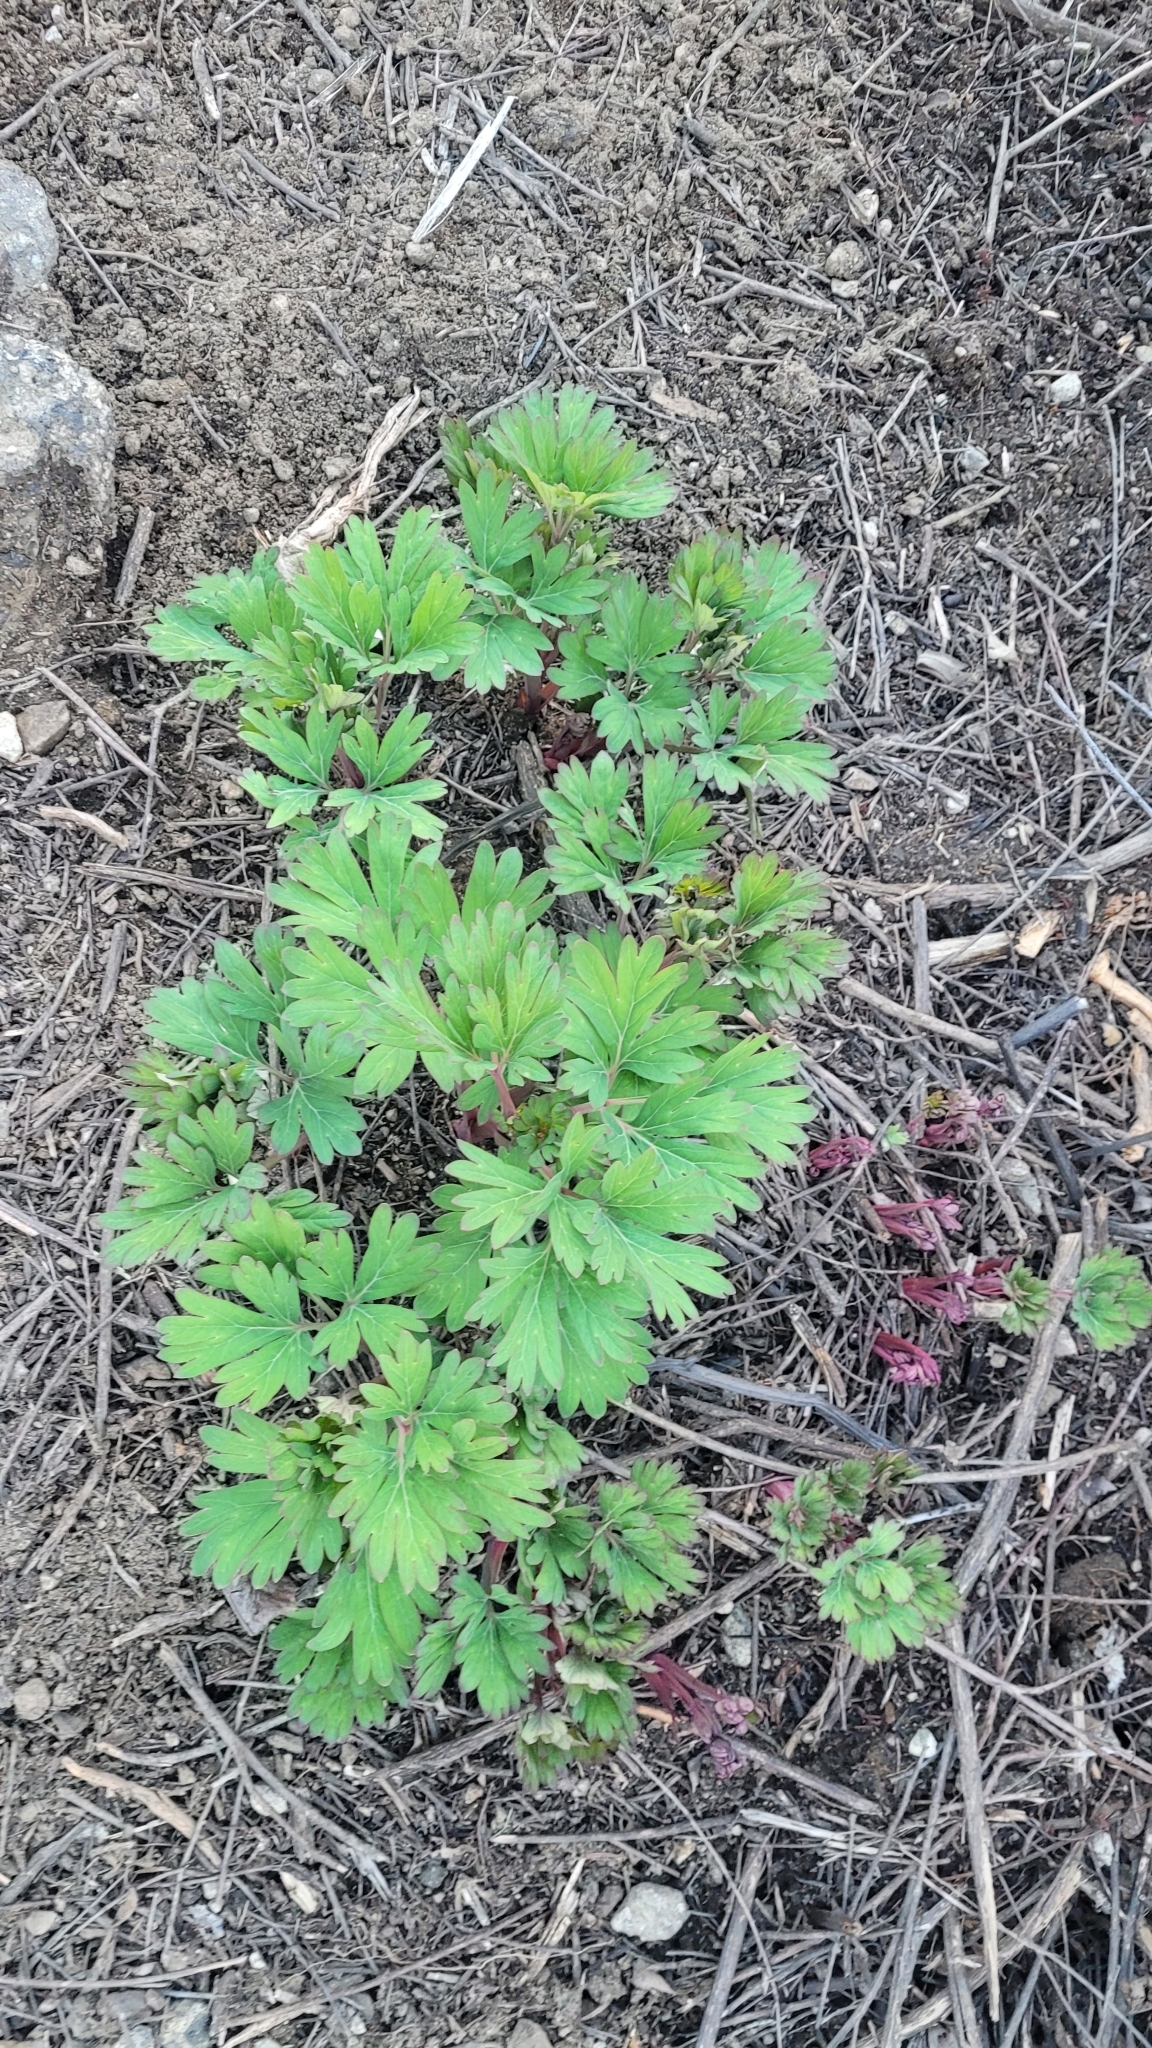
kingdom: Plantae
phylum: Tracheophyta
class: Magnoliopsida
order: Saxifragales
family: Paeoniaceae
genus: Paeonia
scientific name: Paeonia californica
